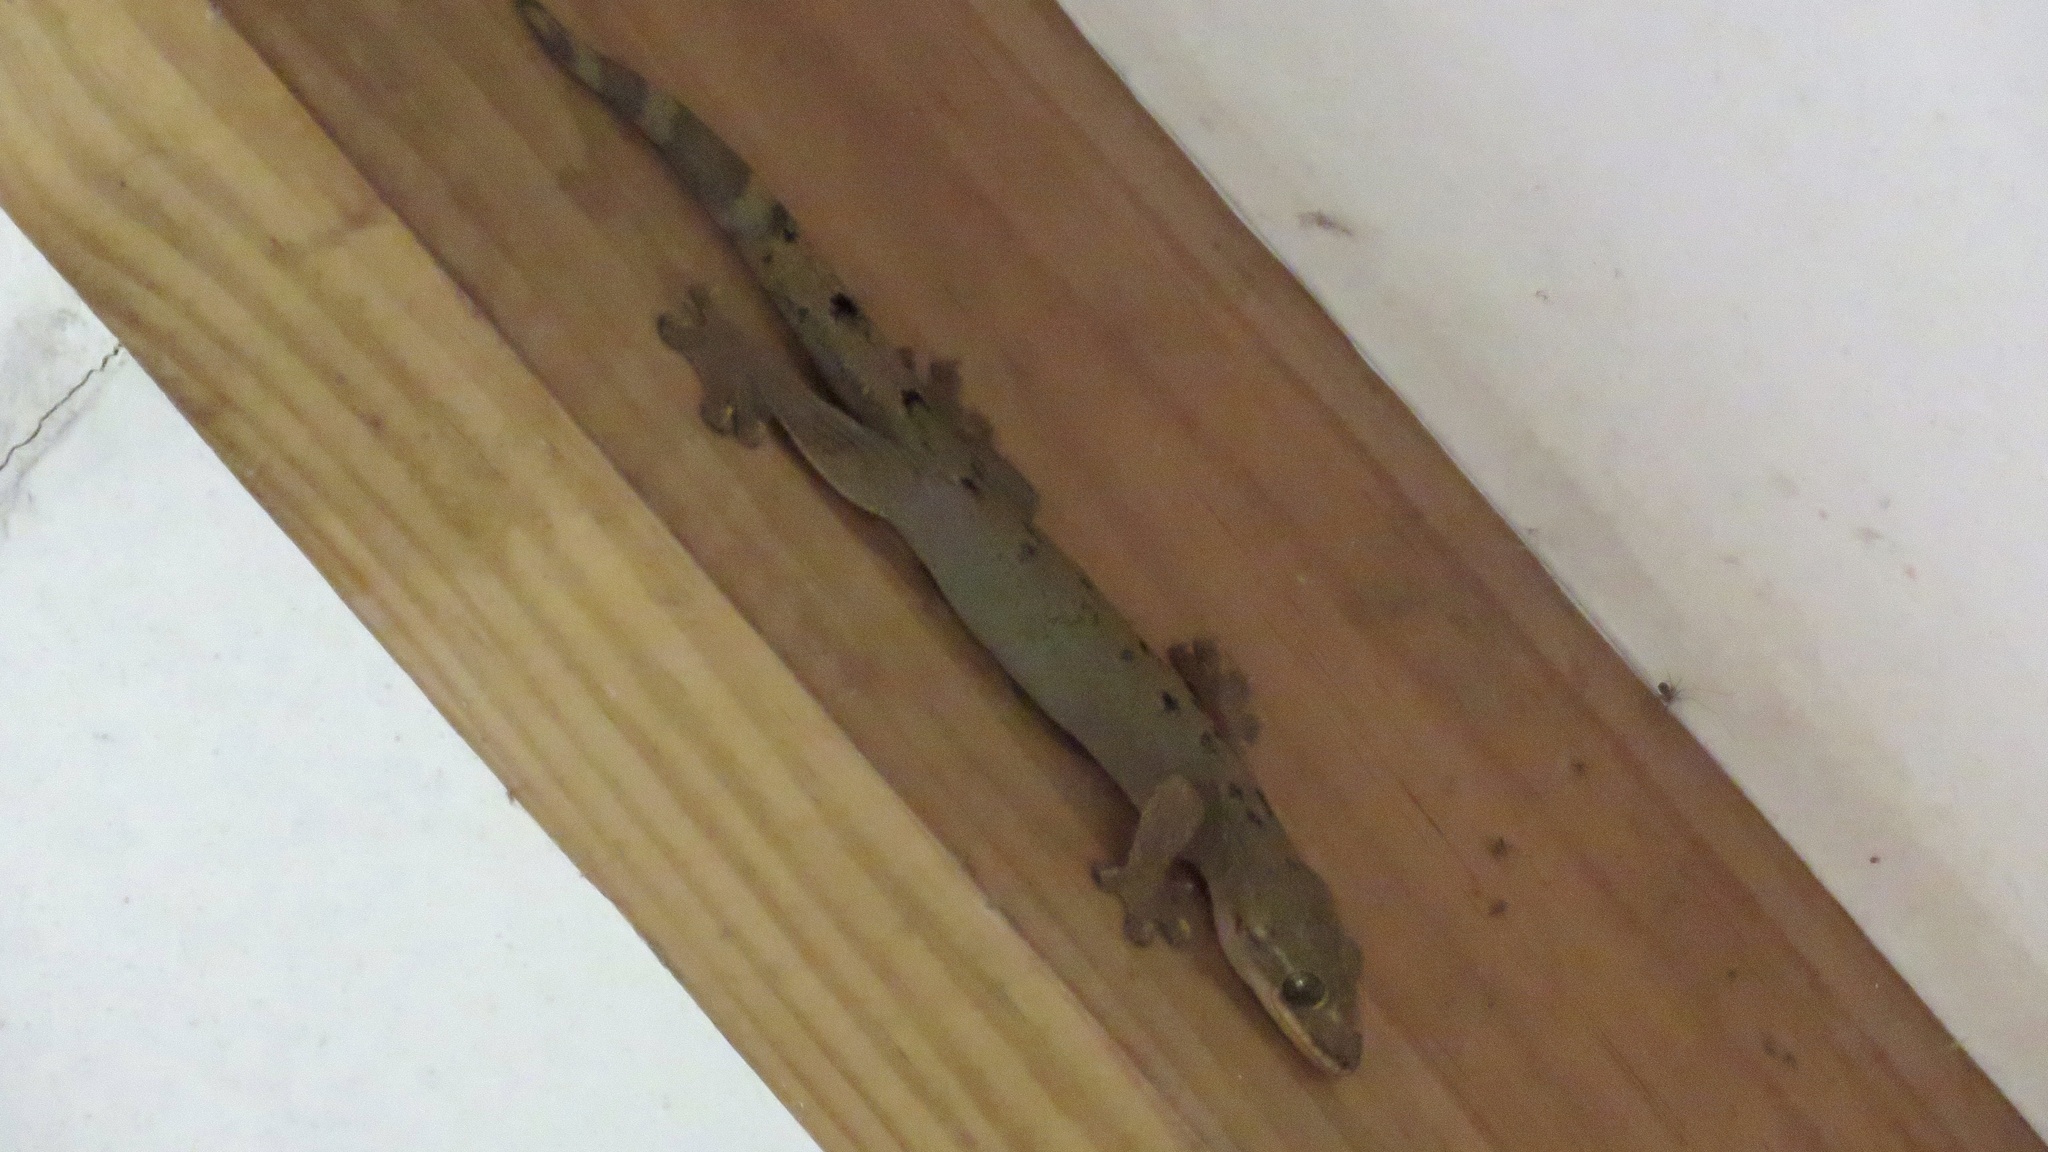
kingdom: Animalia
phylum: Chordata
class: Squamata
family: Phyllodactylidae
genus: Thecadactylus
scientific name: Thecadactylus rapicauda
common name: Turnip-tailed gecko
